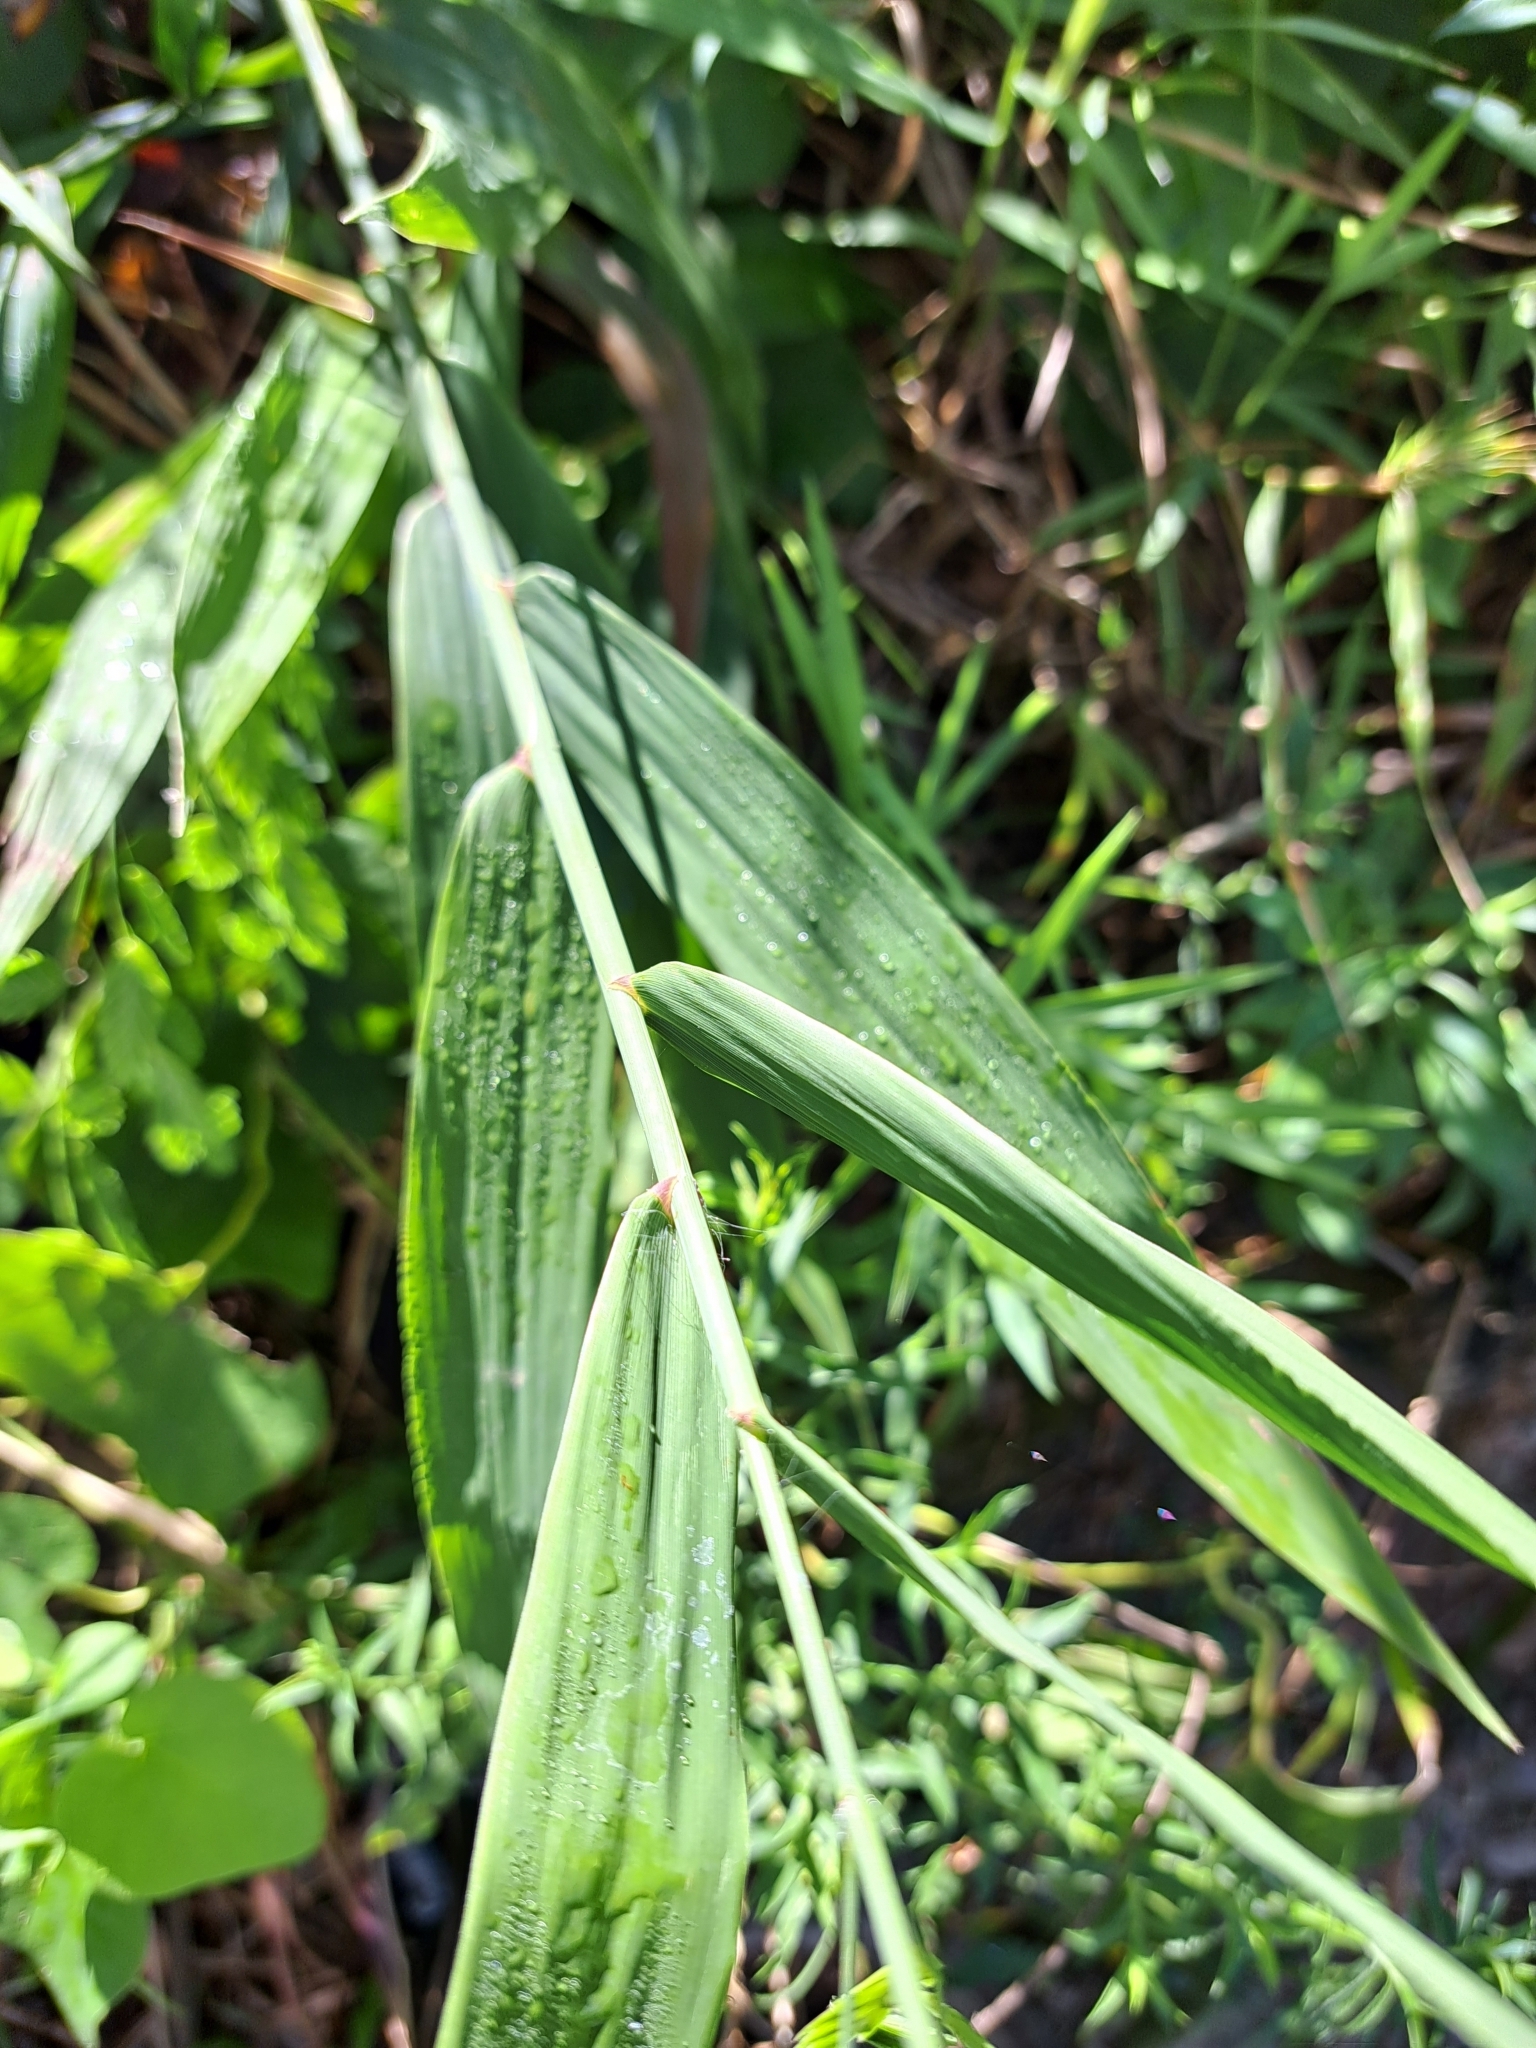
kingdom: Plantae
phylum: Tracheophyta
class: Liliopsida
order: Poales
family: Poaceae
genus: Chasmanthium
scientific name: Chasmanthium latifolium
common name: Broad-leaved chasmanthium
